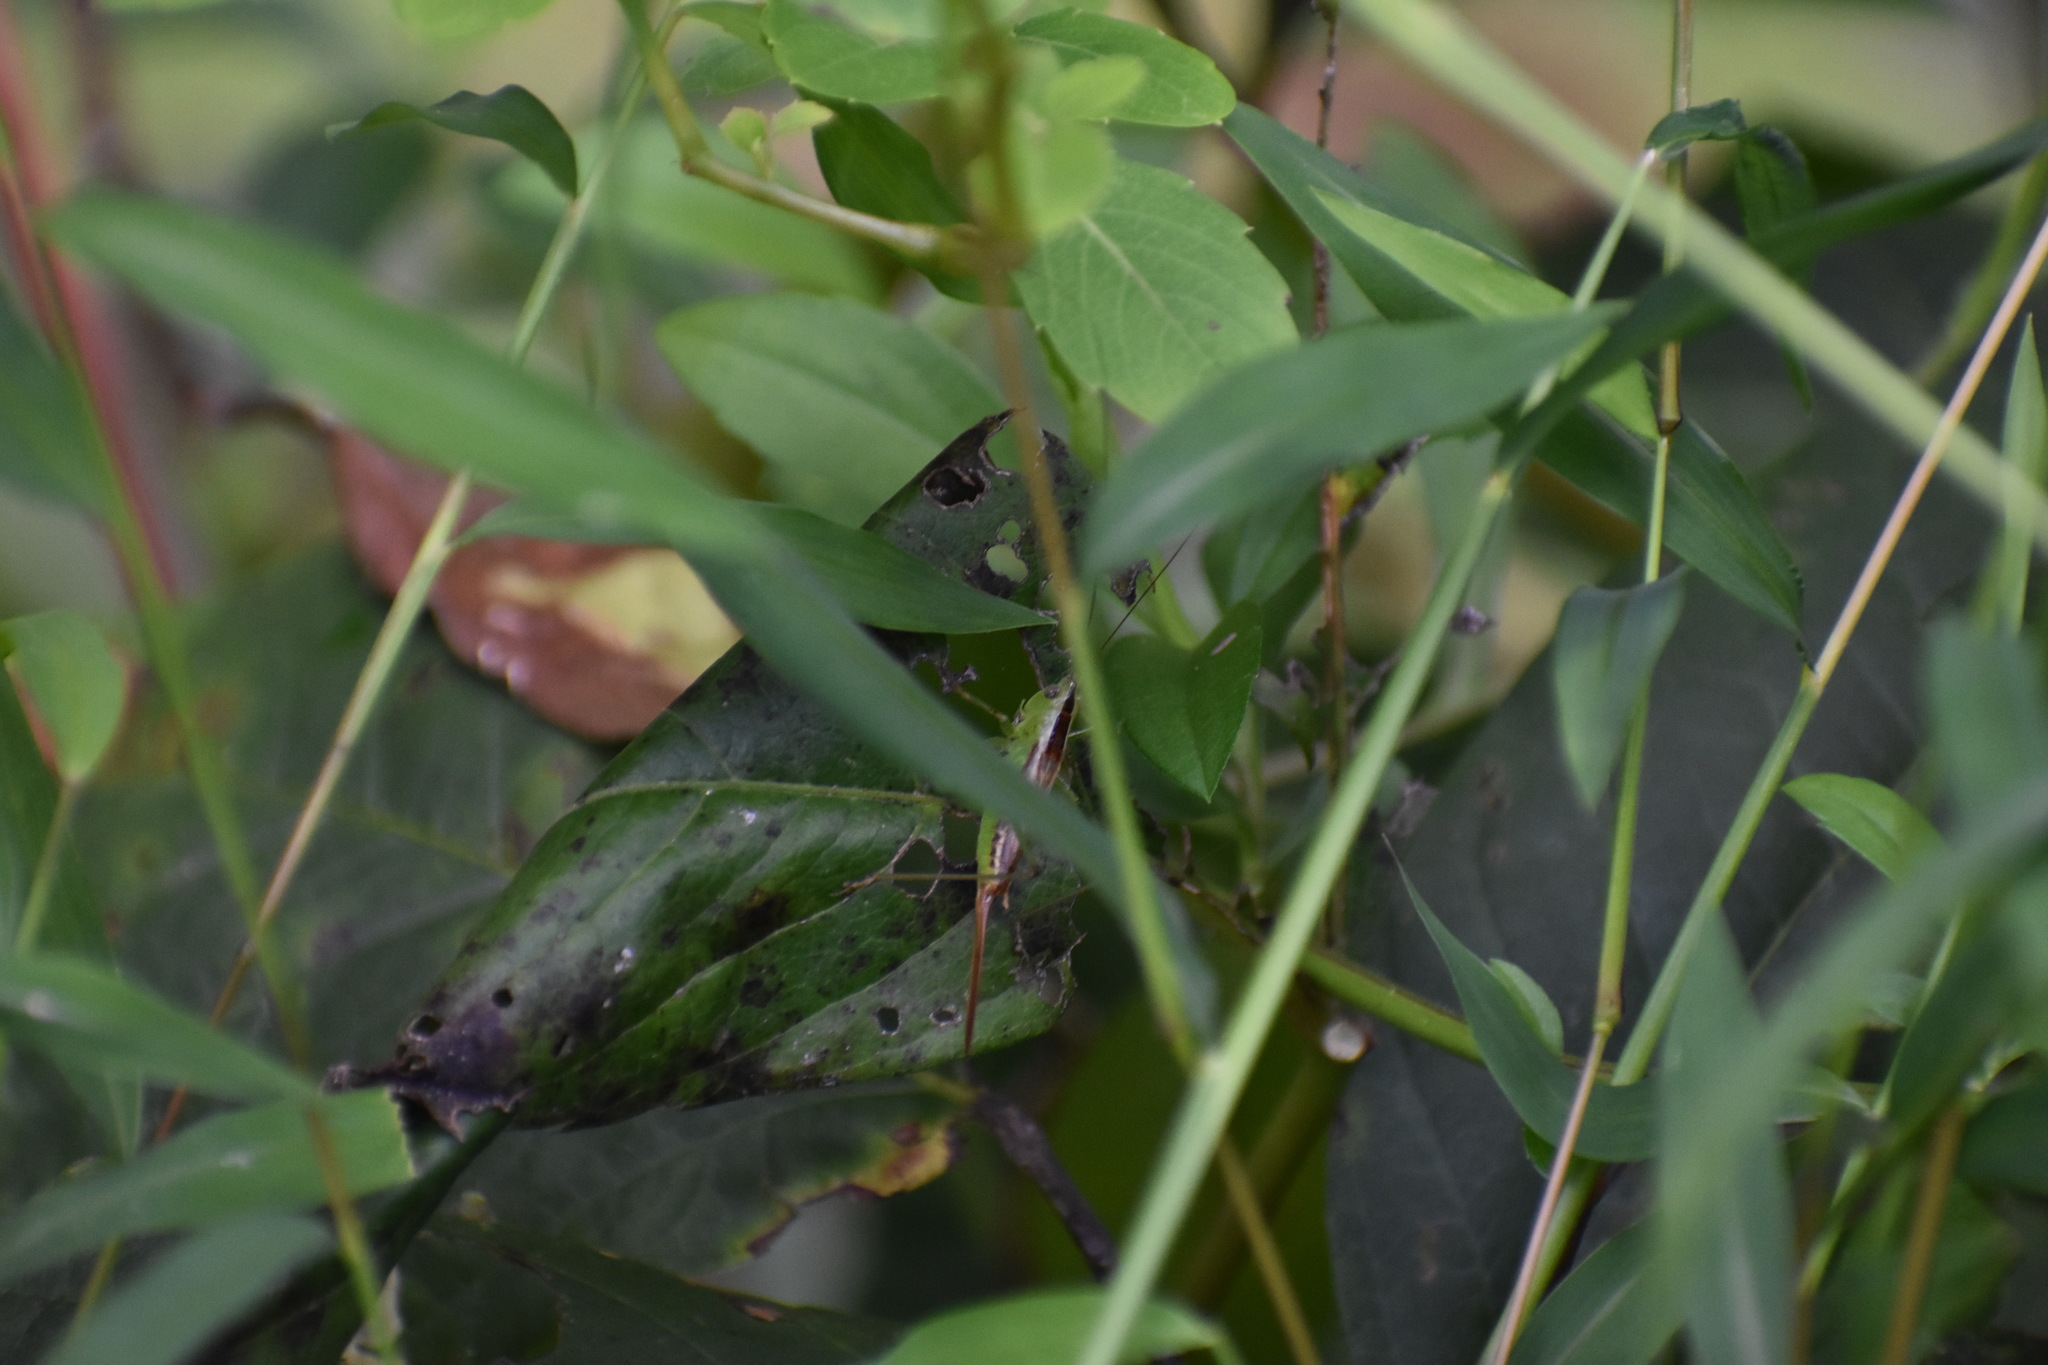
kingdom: Animalia
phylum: Arthropoda
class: Insecta
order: Orthoptera
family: Tettigoniidae
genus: Conocephalus
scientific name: Conocephalus brevipennis
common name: Short-winged meadow katydid
